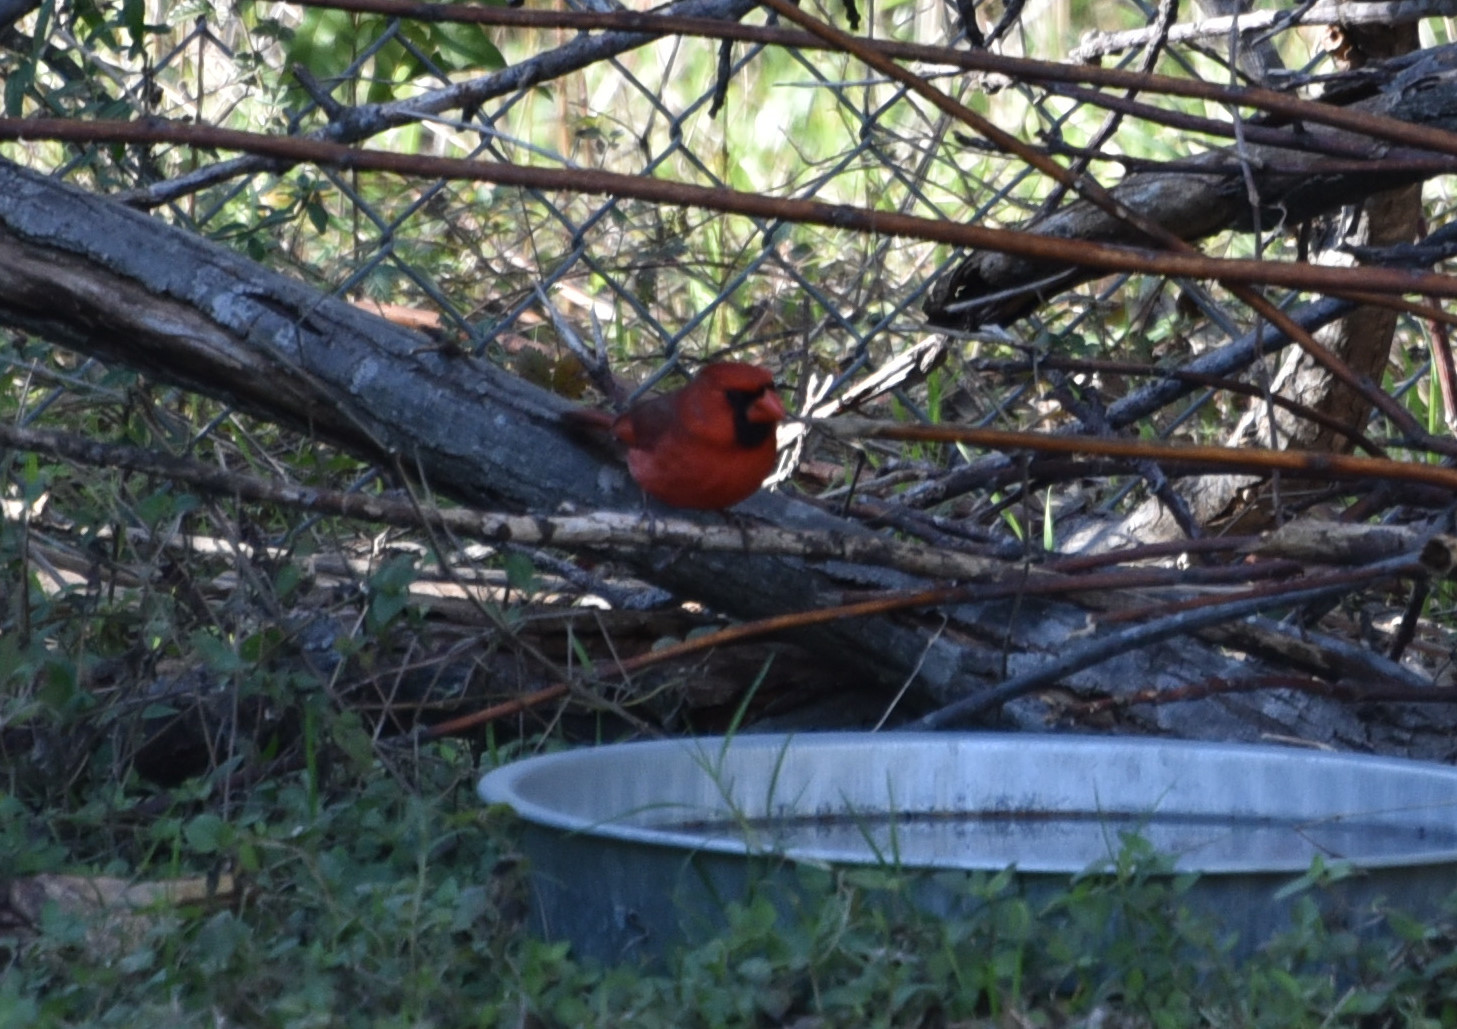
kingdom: Animalia
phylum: Chordata
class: Aves
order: Passeriformes
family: Cardinalidae
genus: Cardinalis
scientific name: Cardinalis cardinalis
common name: Northern cardinal
